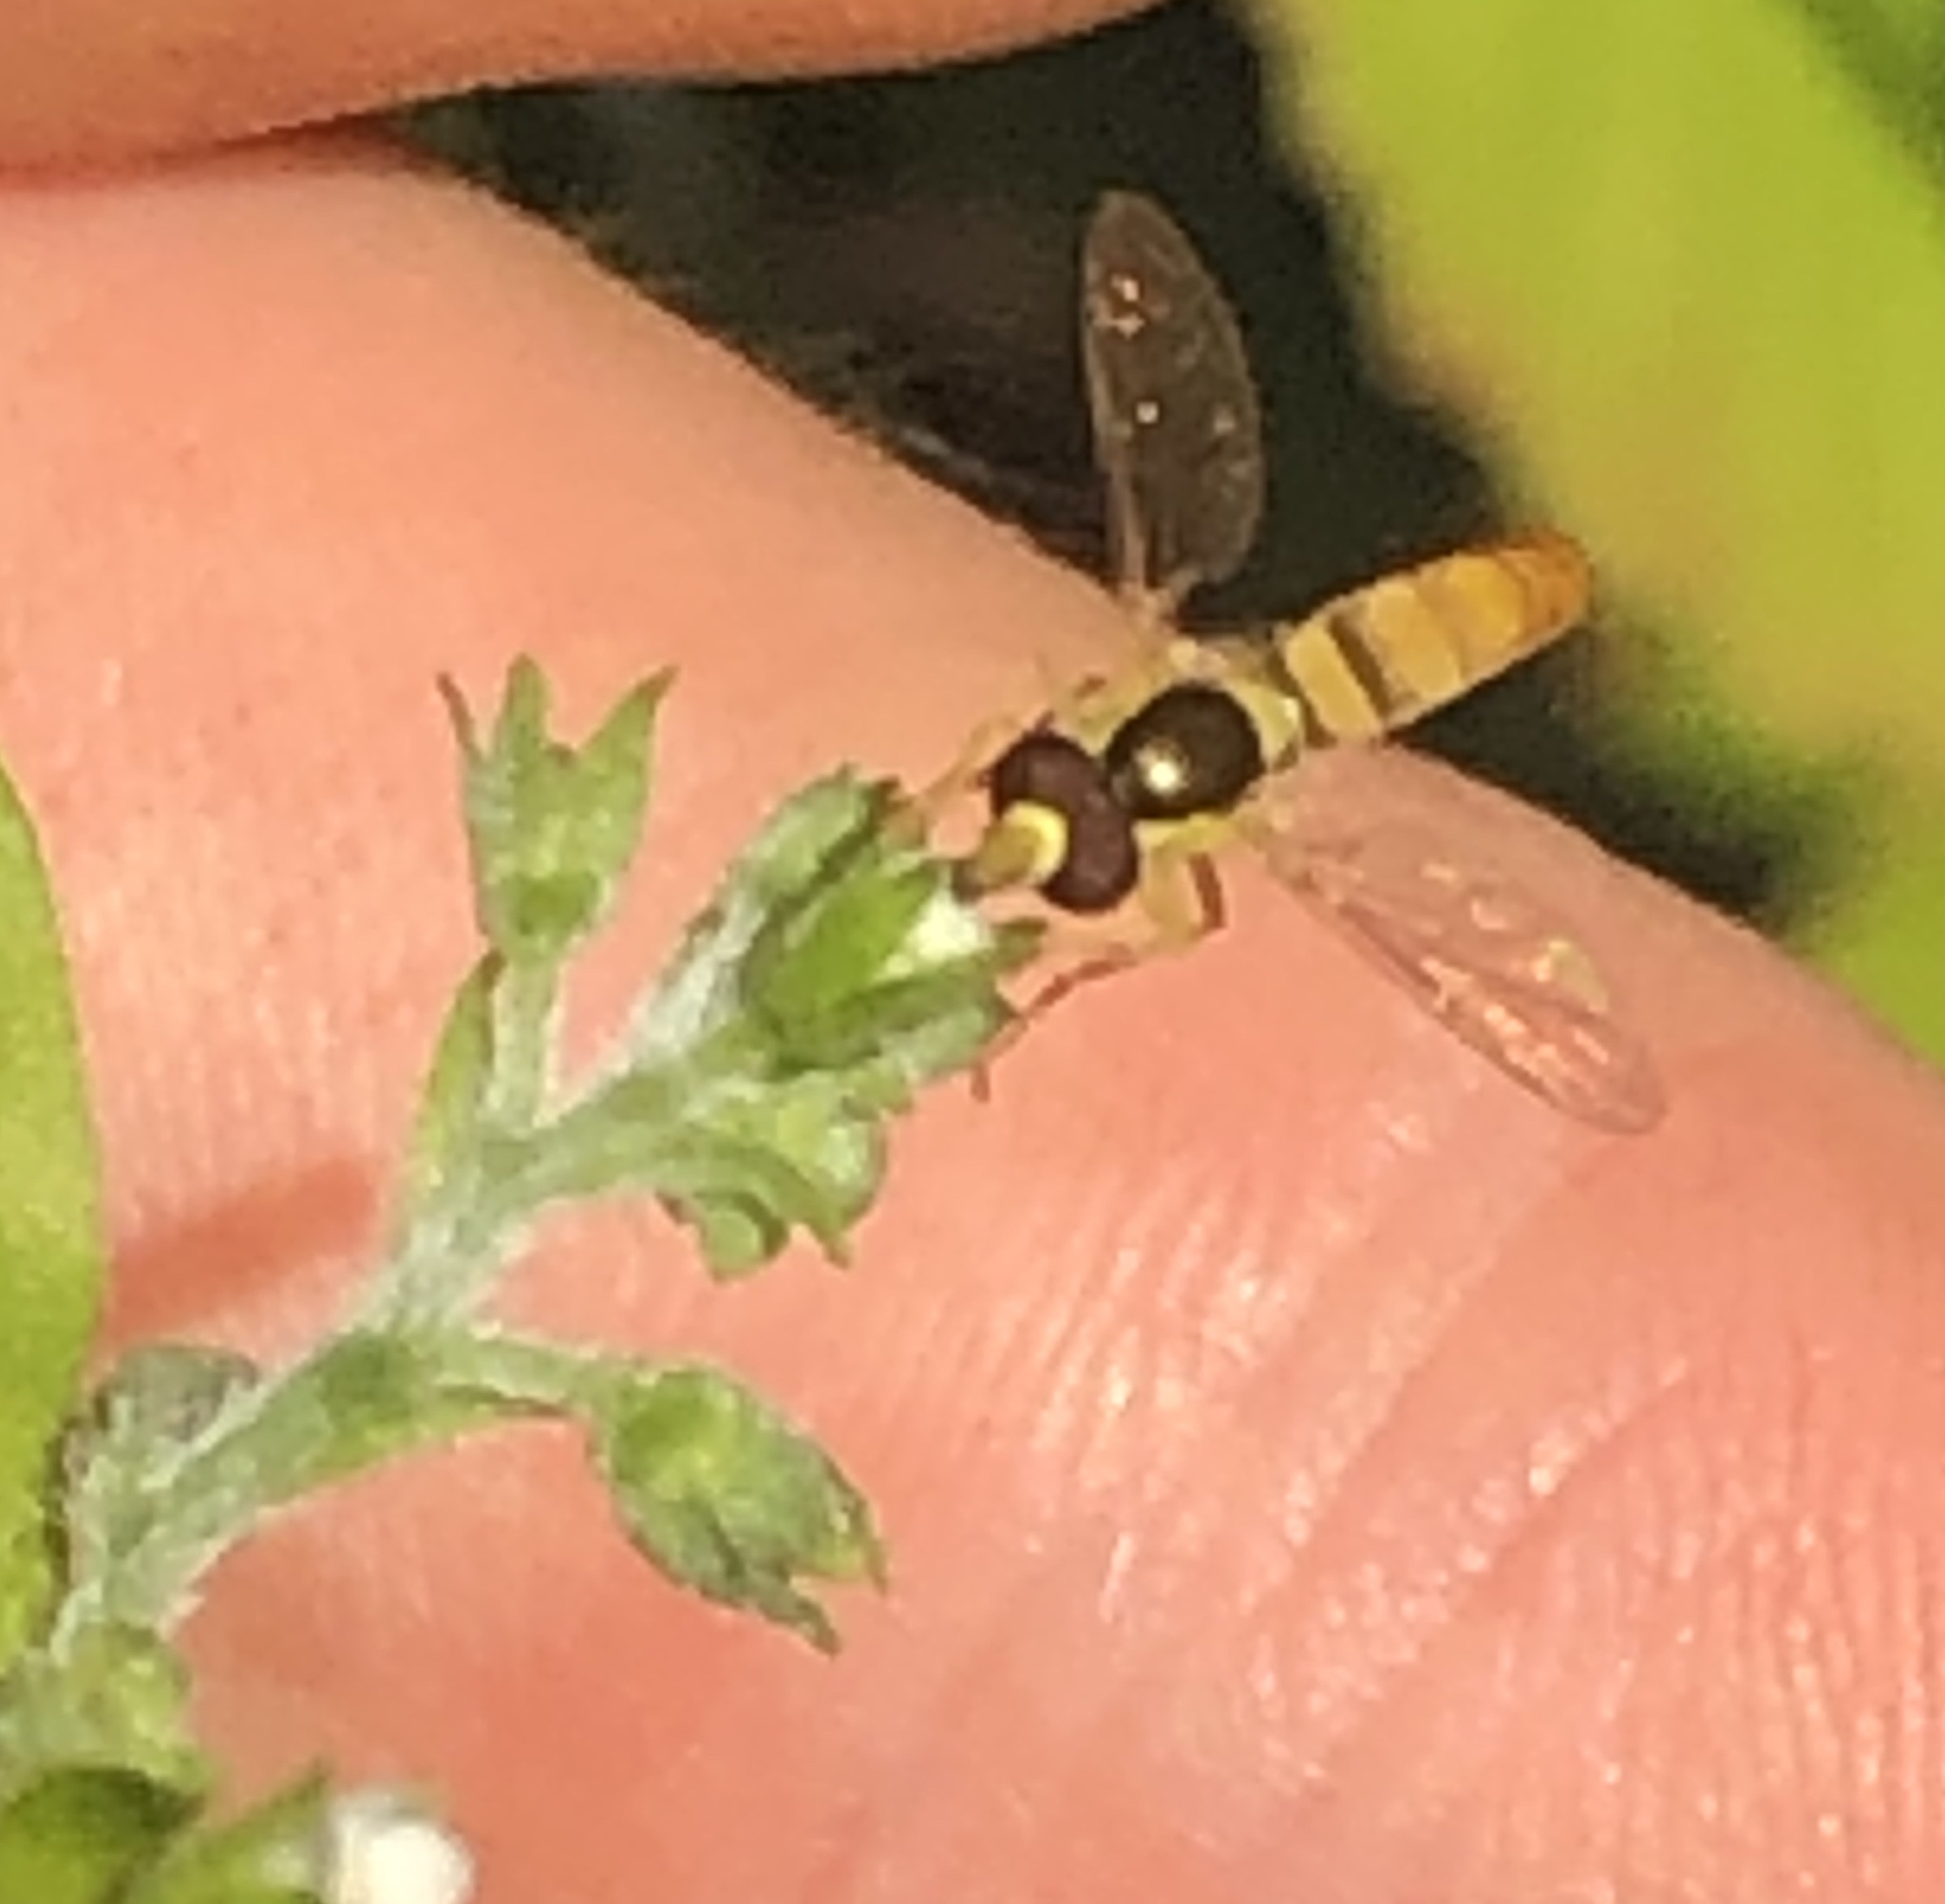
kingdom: Animalia
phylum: Arthropoda
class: Insecta
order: Diptera
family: Syrphidae
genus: Sphaerophoria
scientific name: Sphaerophoria contigua
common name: Tufted globetail
